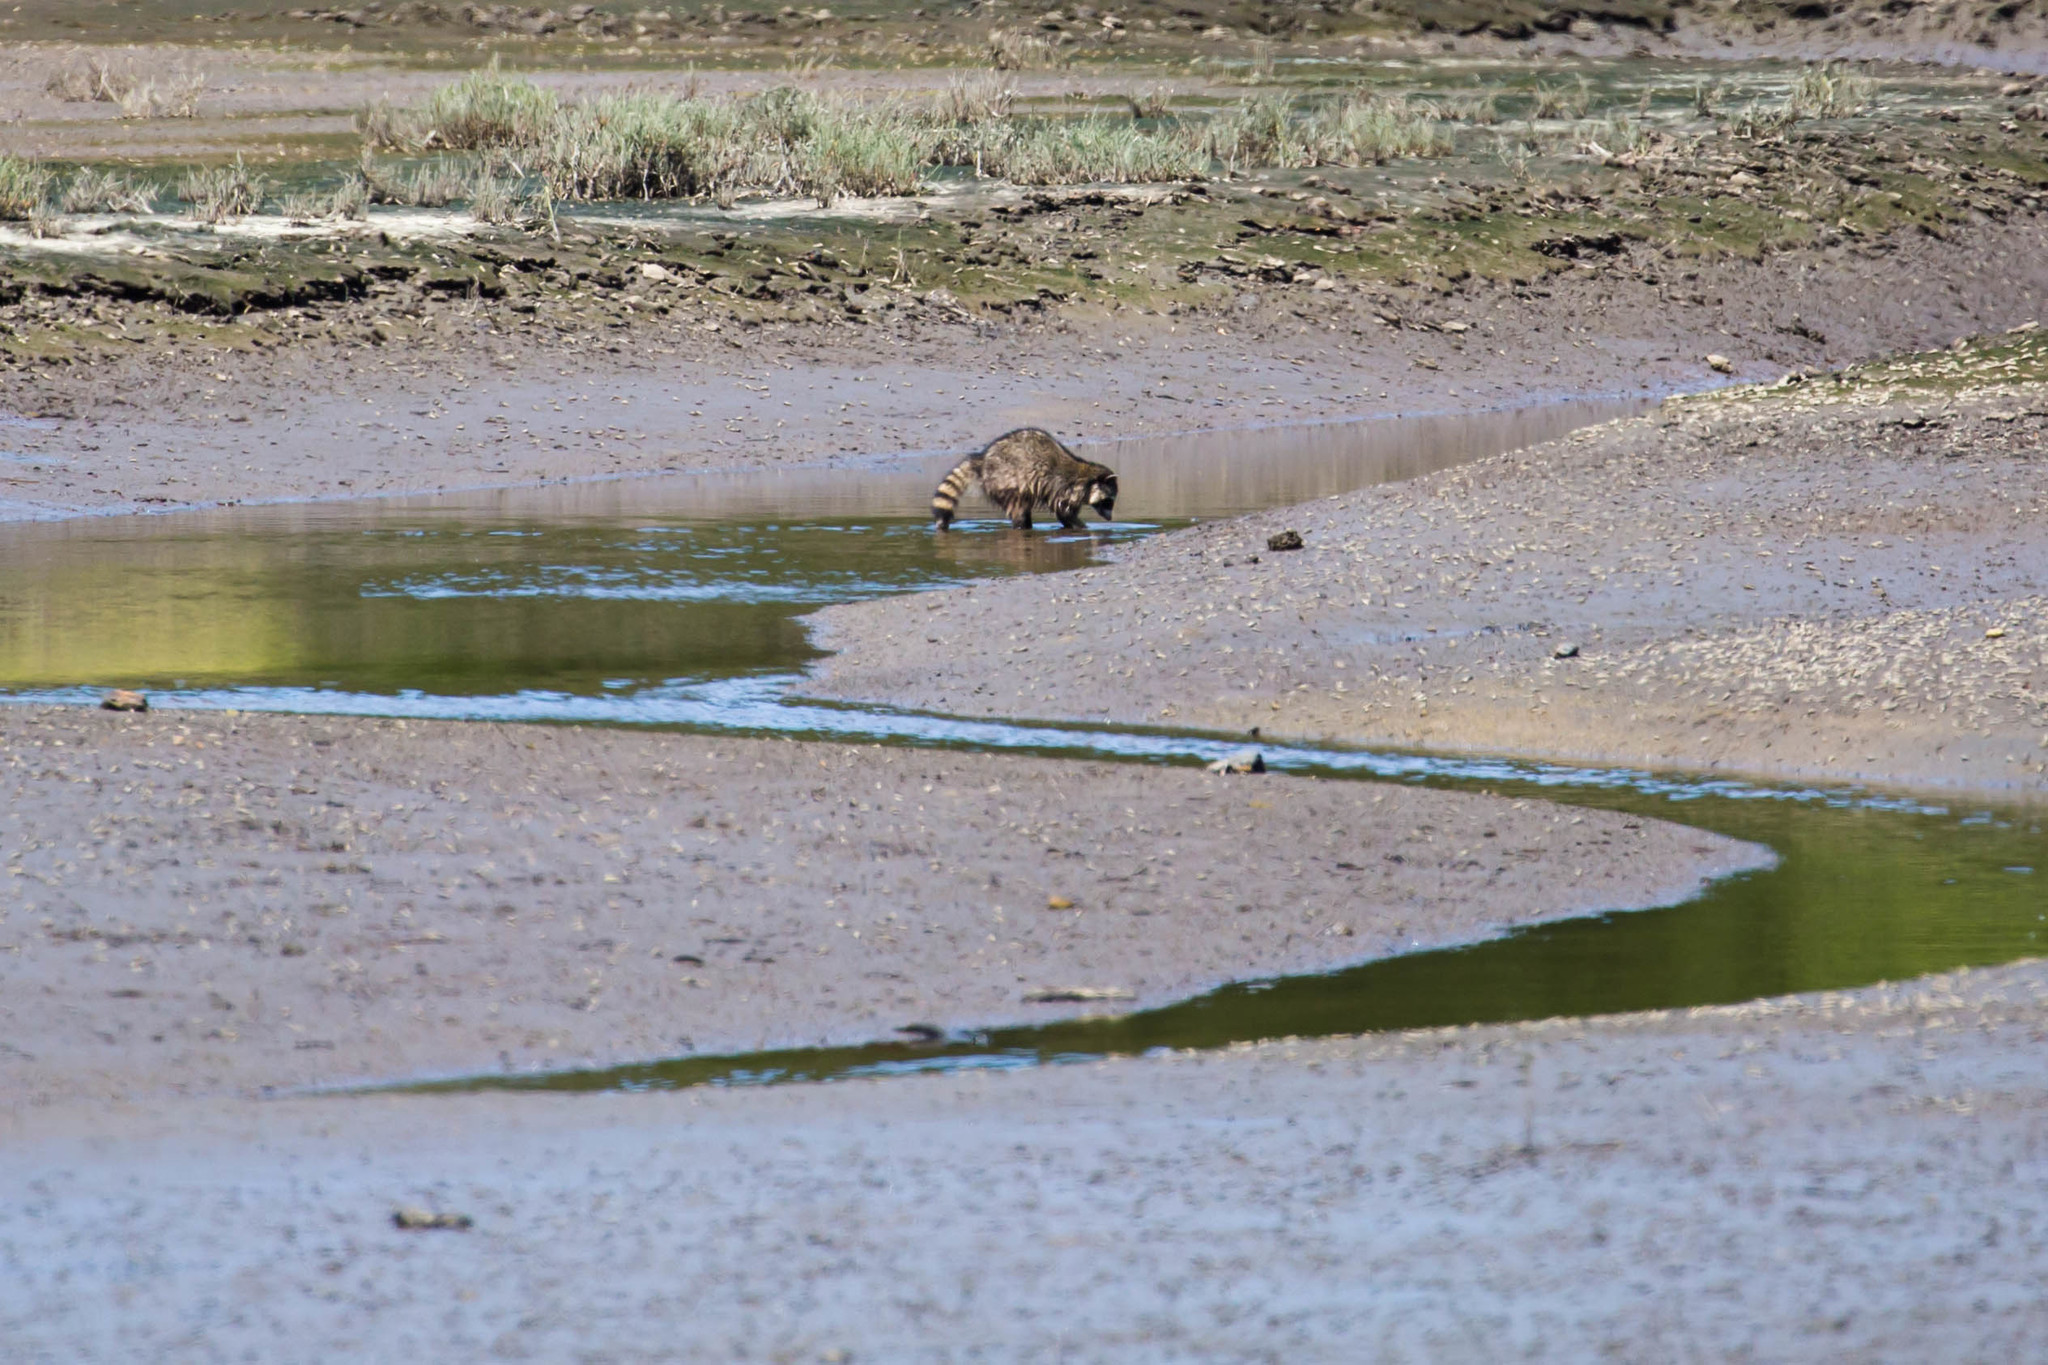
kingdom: Animalia
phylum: Chordata
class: Mammalia
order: Carnivora
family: Procyonidae
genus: Procyon
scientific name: Procyon lotor
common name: Raccoon
